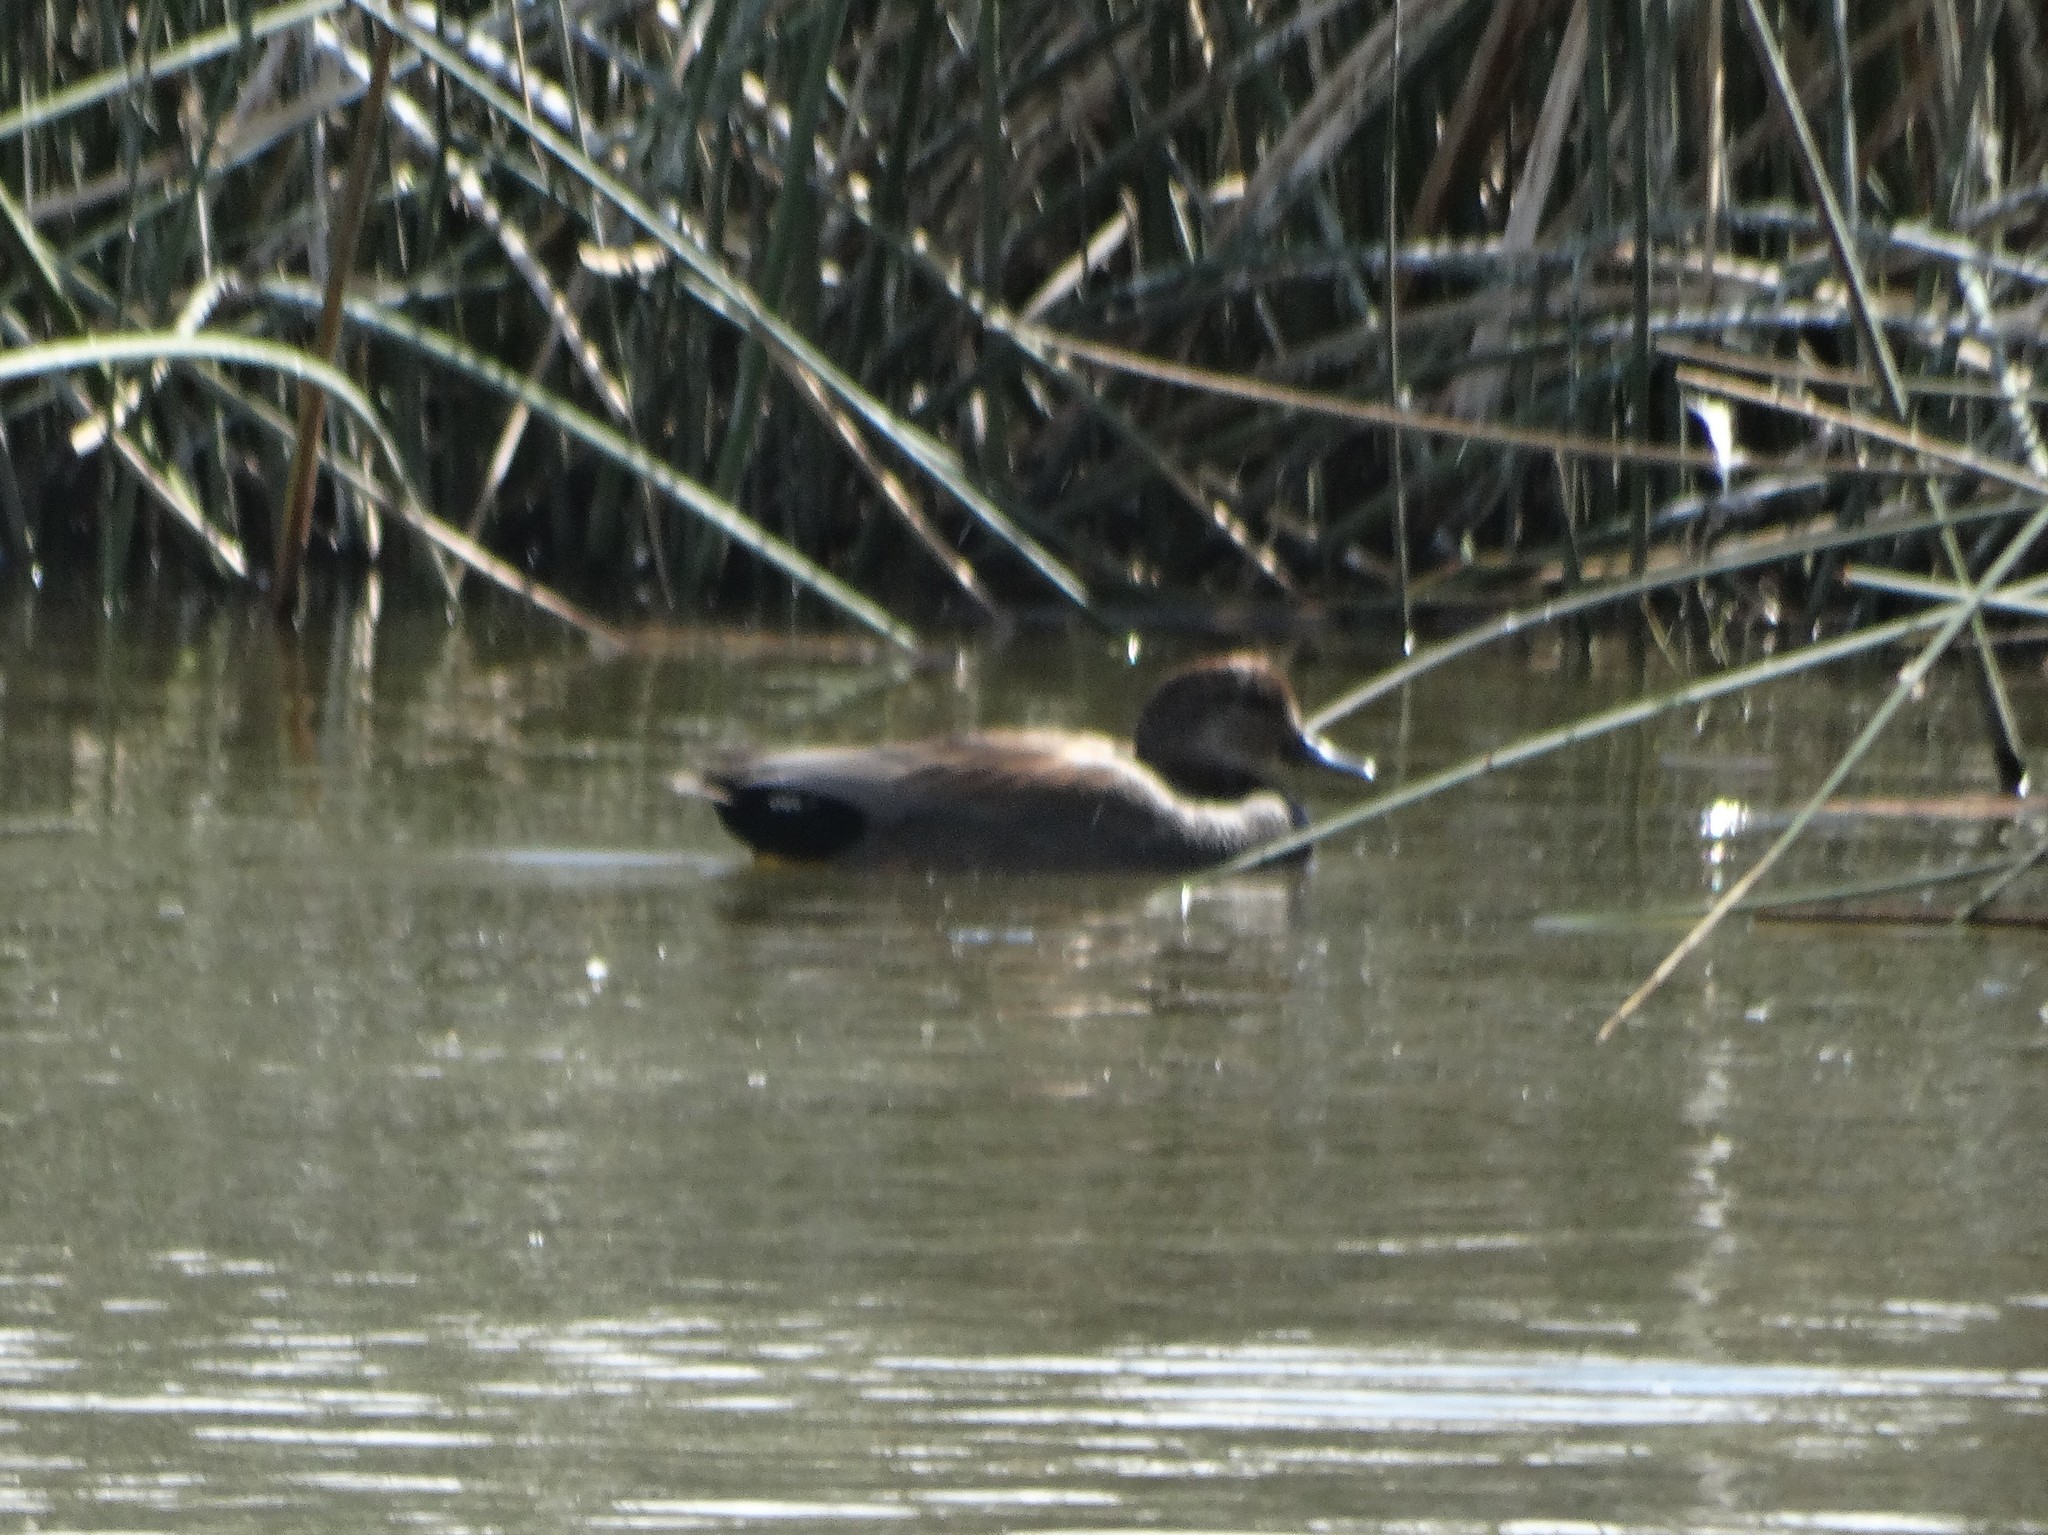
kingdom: Animalia
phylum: Chordata
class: Aves
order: Anseriformes
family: Anatidae
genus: Mareca
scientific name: Mareca strepera
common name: Gadwall
